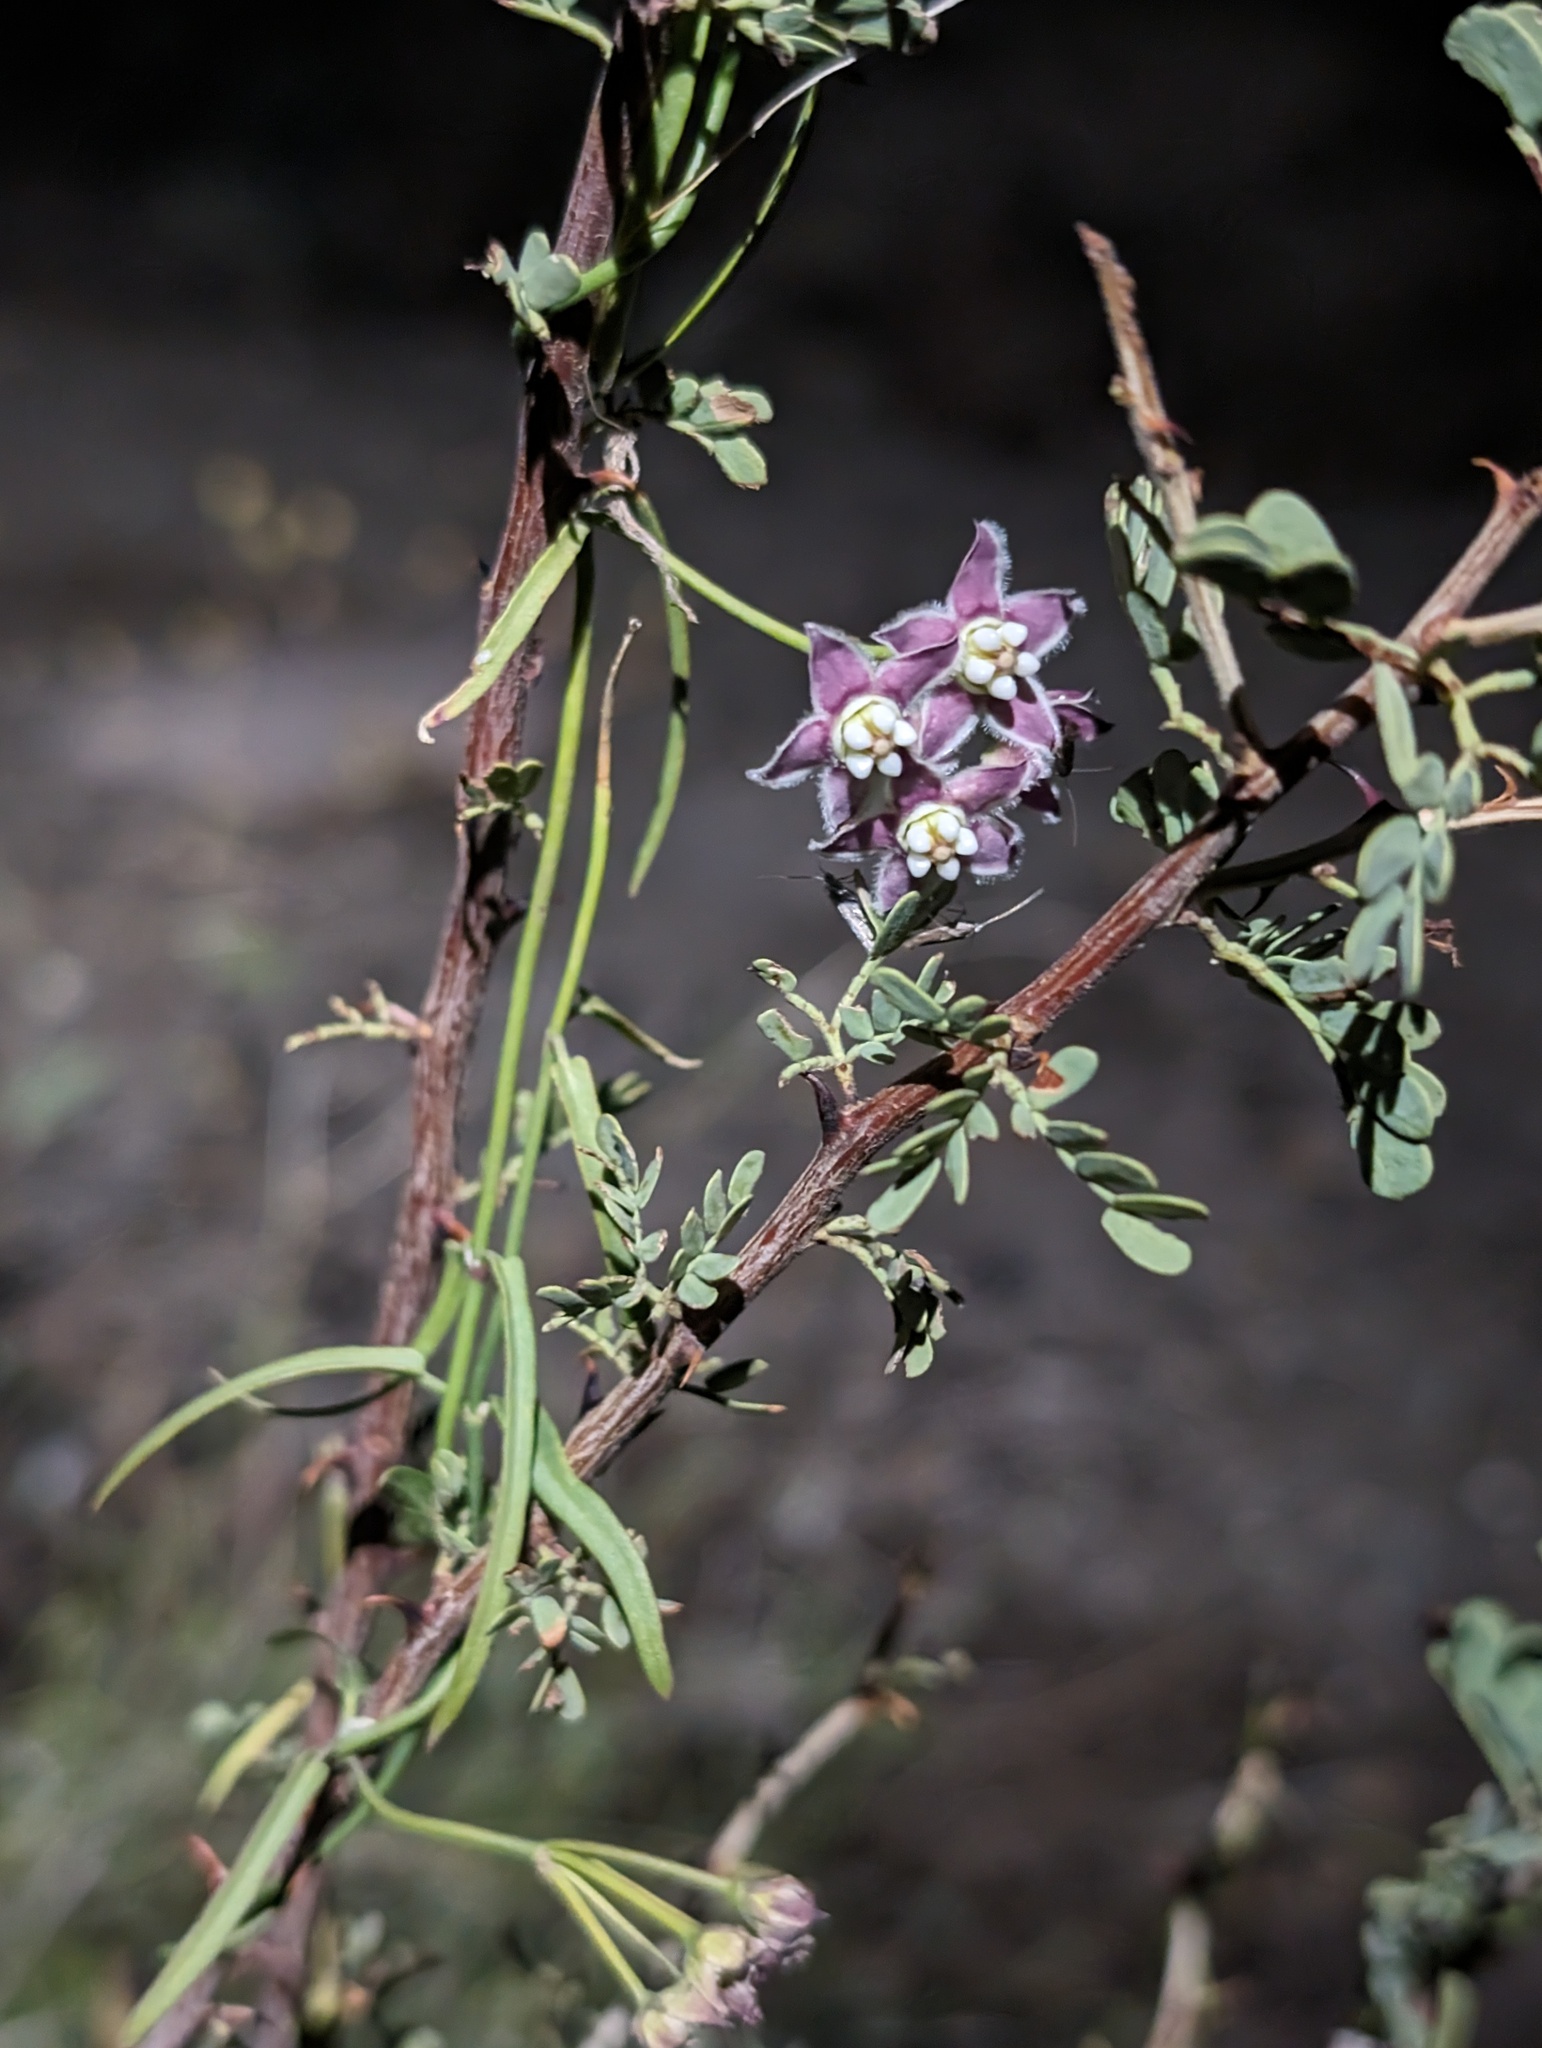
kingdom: Plantae
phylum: Tracheophyta
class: Magnoliopsida
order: Gentianales
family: Apocynaceae
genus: Funastrum
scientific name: Funastrum heterophyllum
